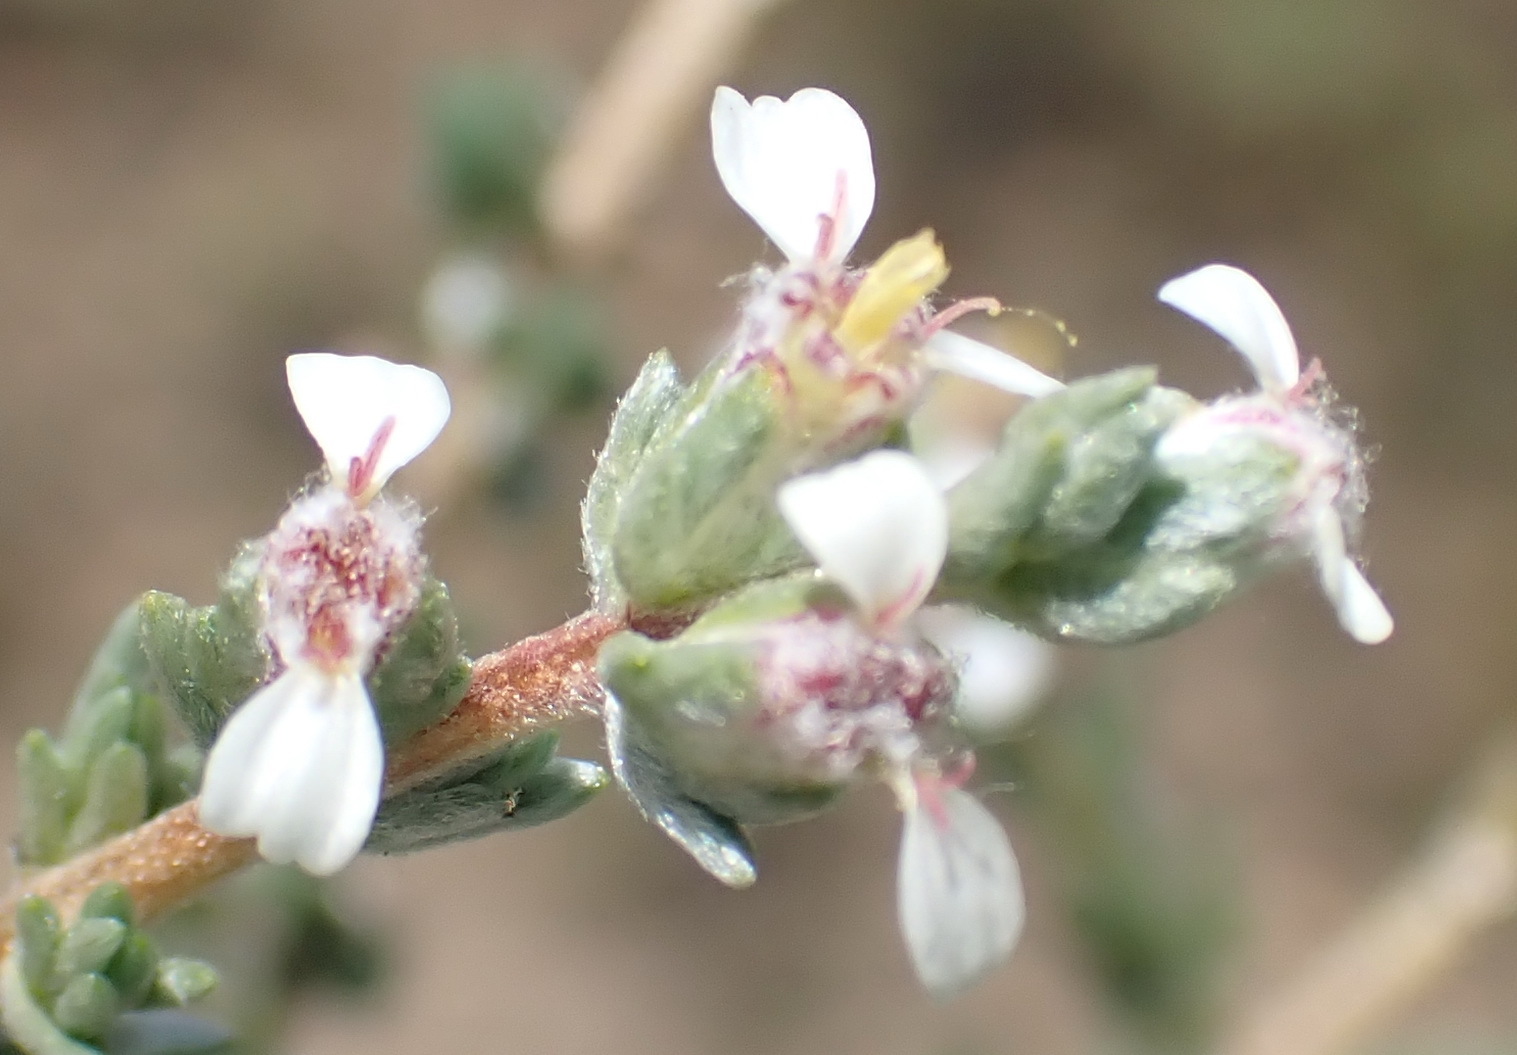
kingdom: Plantae
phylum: Tracheophyta
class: Magnoliopsida
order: Asterales
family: Asteraceae
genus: Eriocephalus
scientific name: Eriocephalus spinescens
